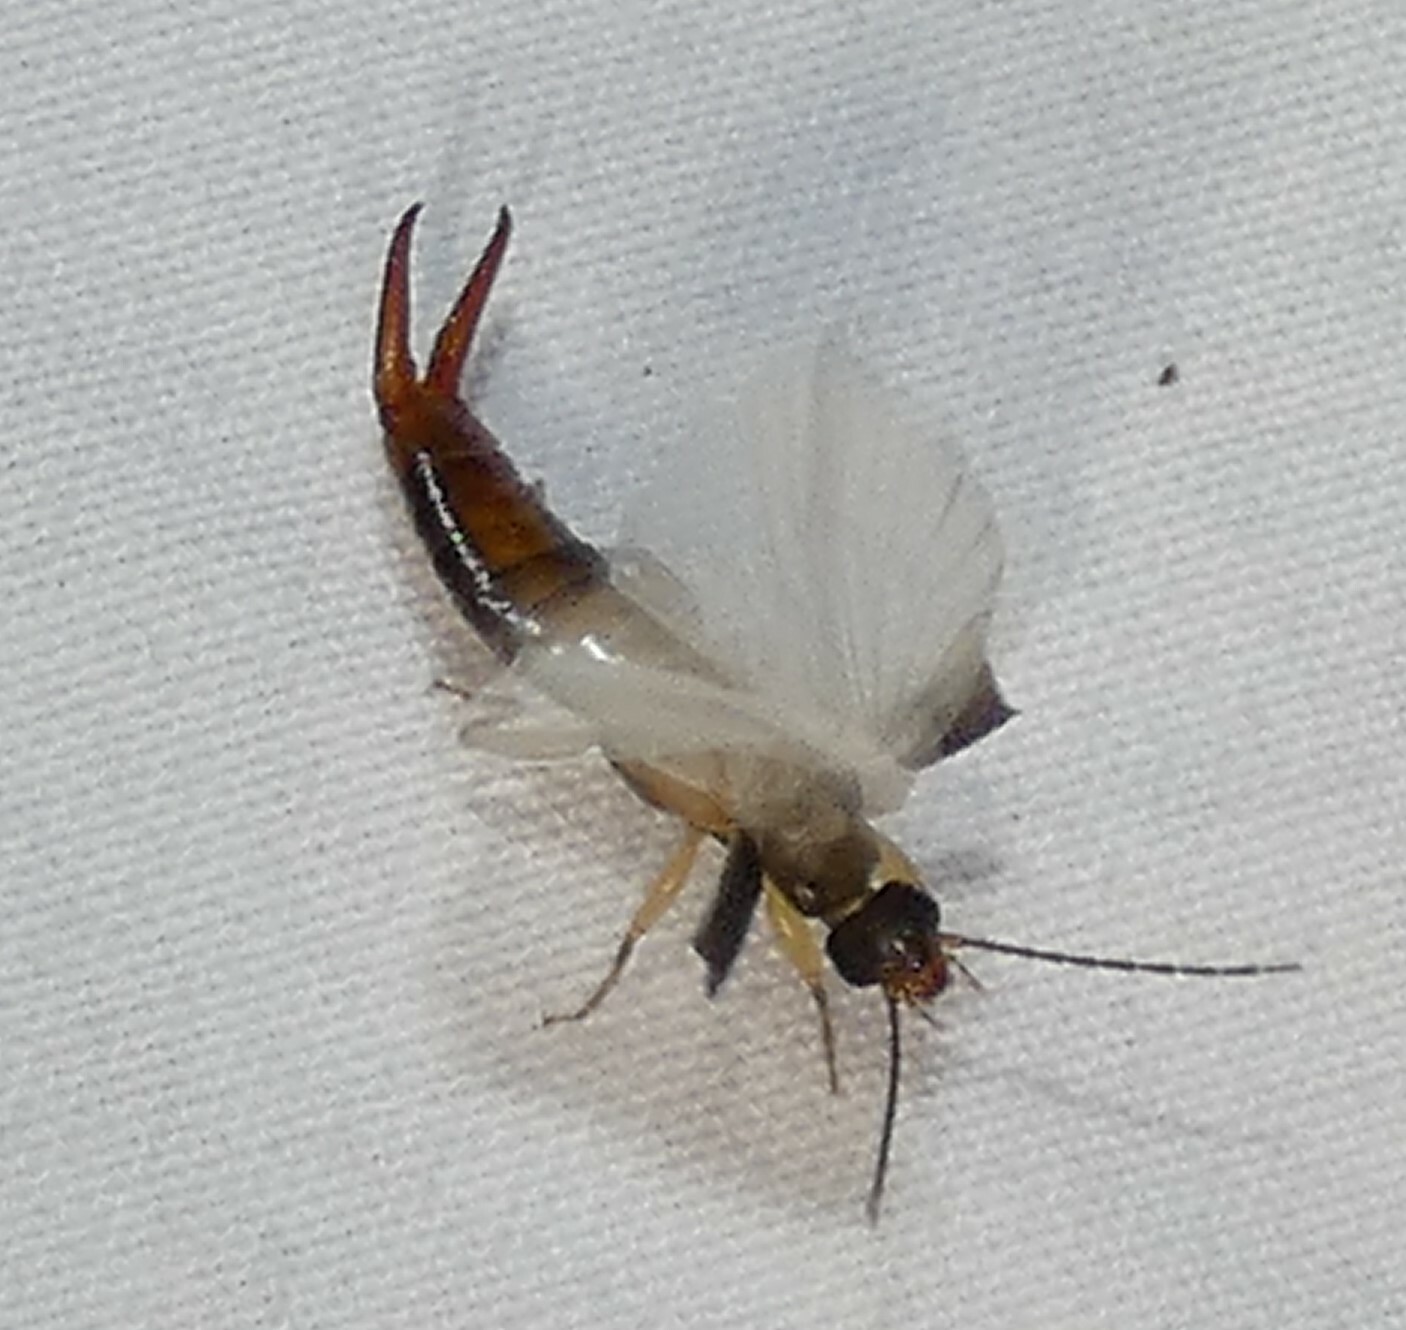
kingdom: Animalia
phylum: Arthropoda
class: Insecta
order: Dermaptera
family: Spongiphoridae
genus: Vostox
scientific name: Vostox brunneipennis
